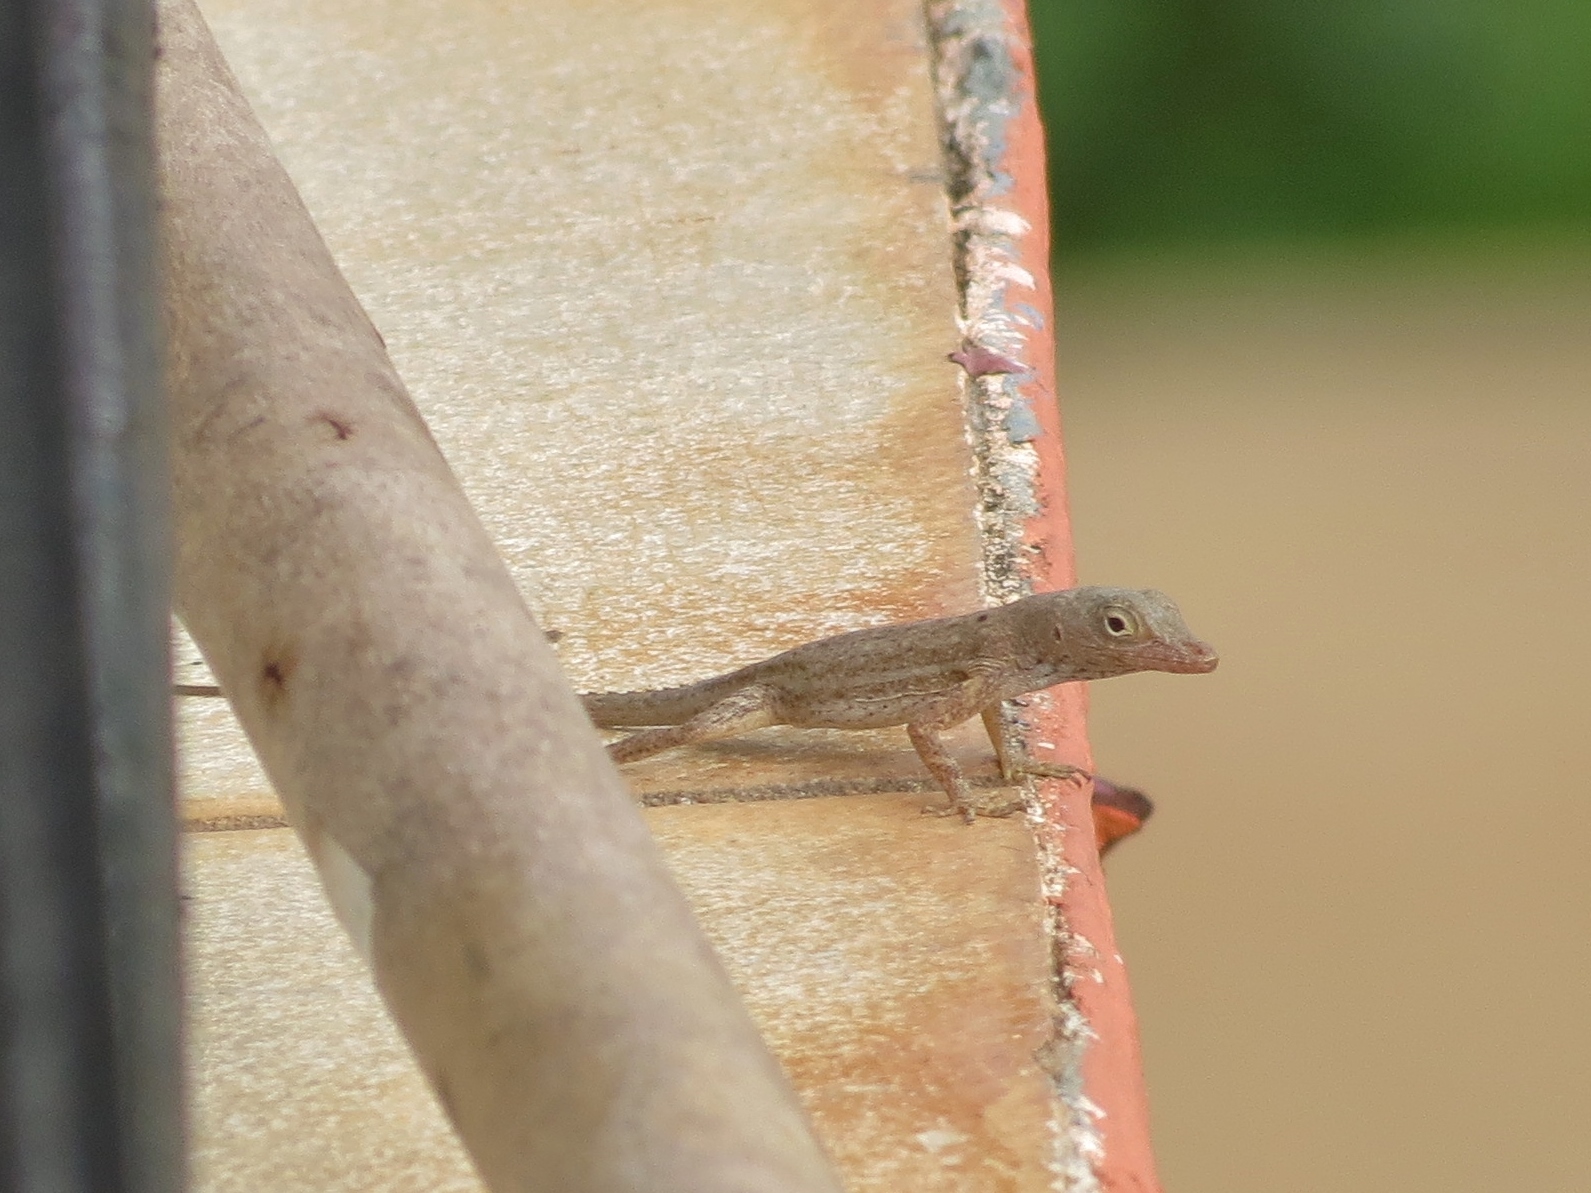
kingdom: Animalia
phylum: Chordata
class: Squamata
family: Dactyloidae
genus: Anolis
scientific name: Anolis stratulus
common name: Banded anole
